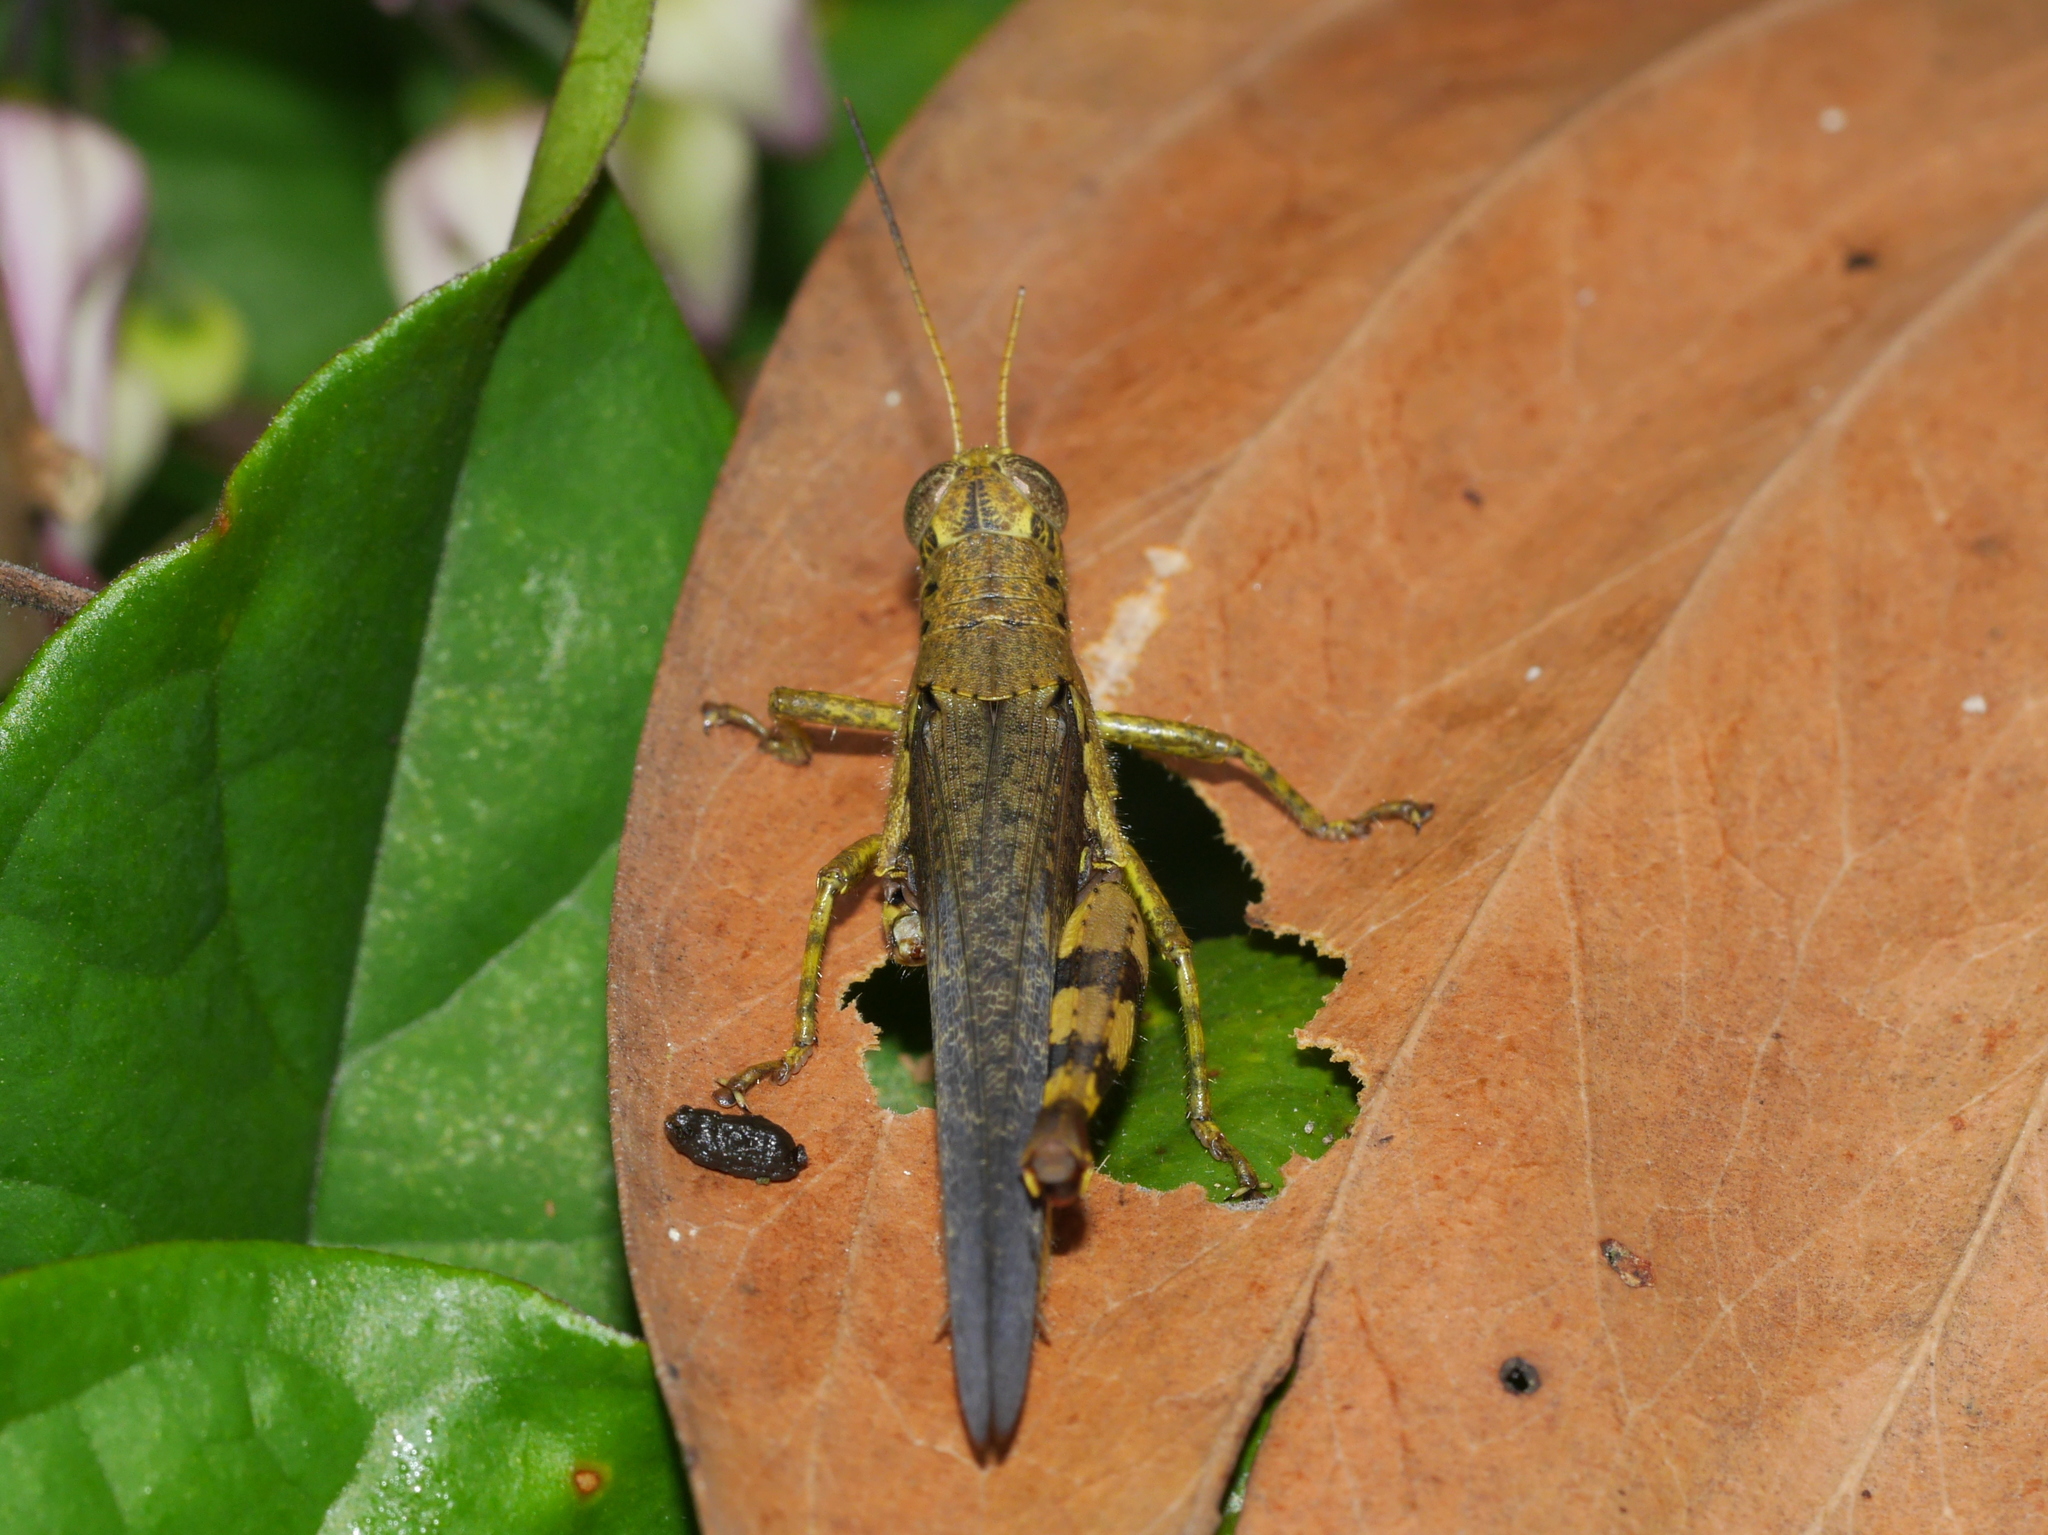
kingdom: Animalia
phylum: Arthropoda
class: Insecta
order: Orthoptera
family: Acrididae
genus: Xenocatantops
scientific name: Xenocatantops humile
